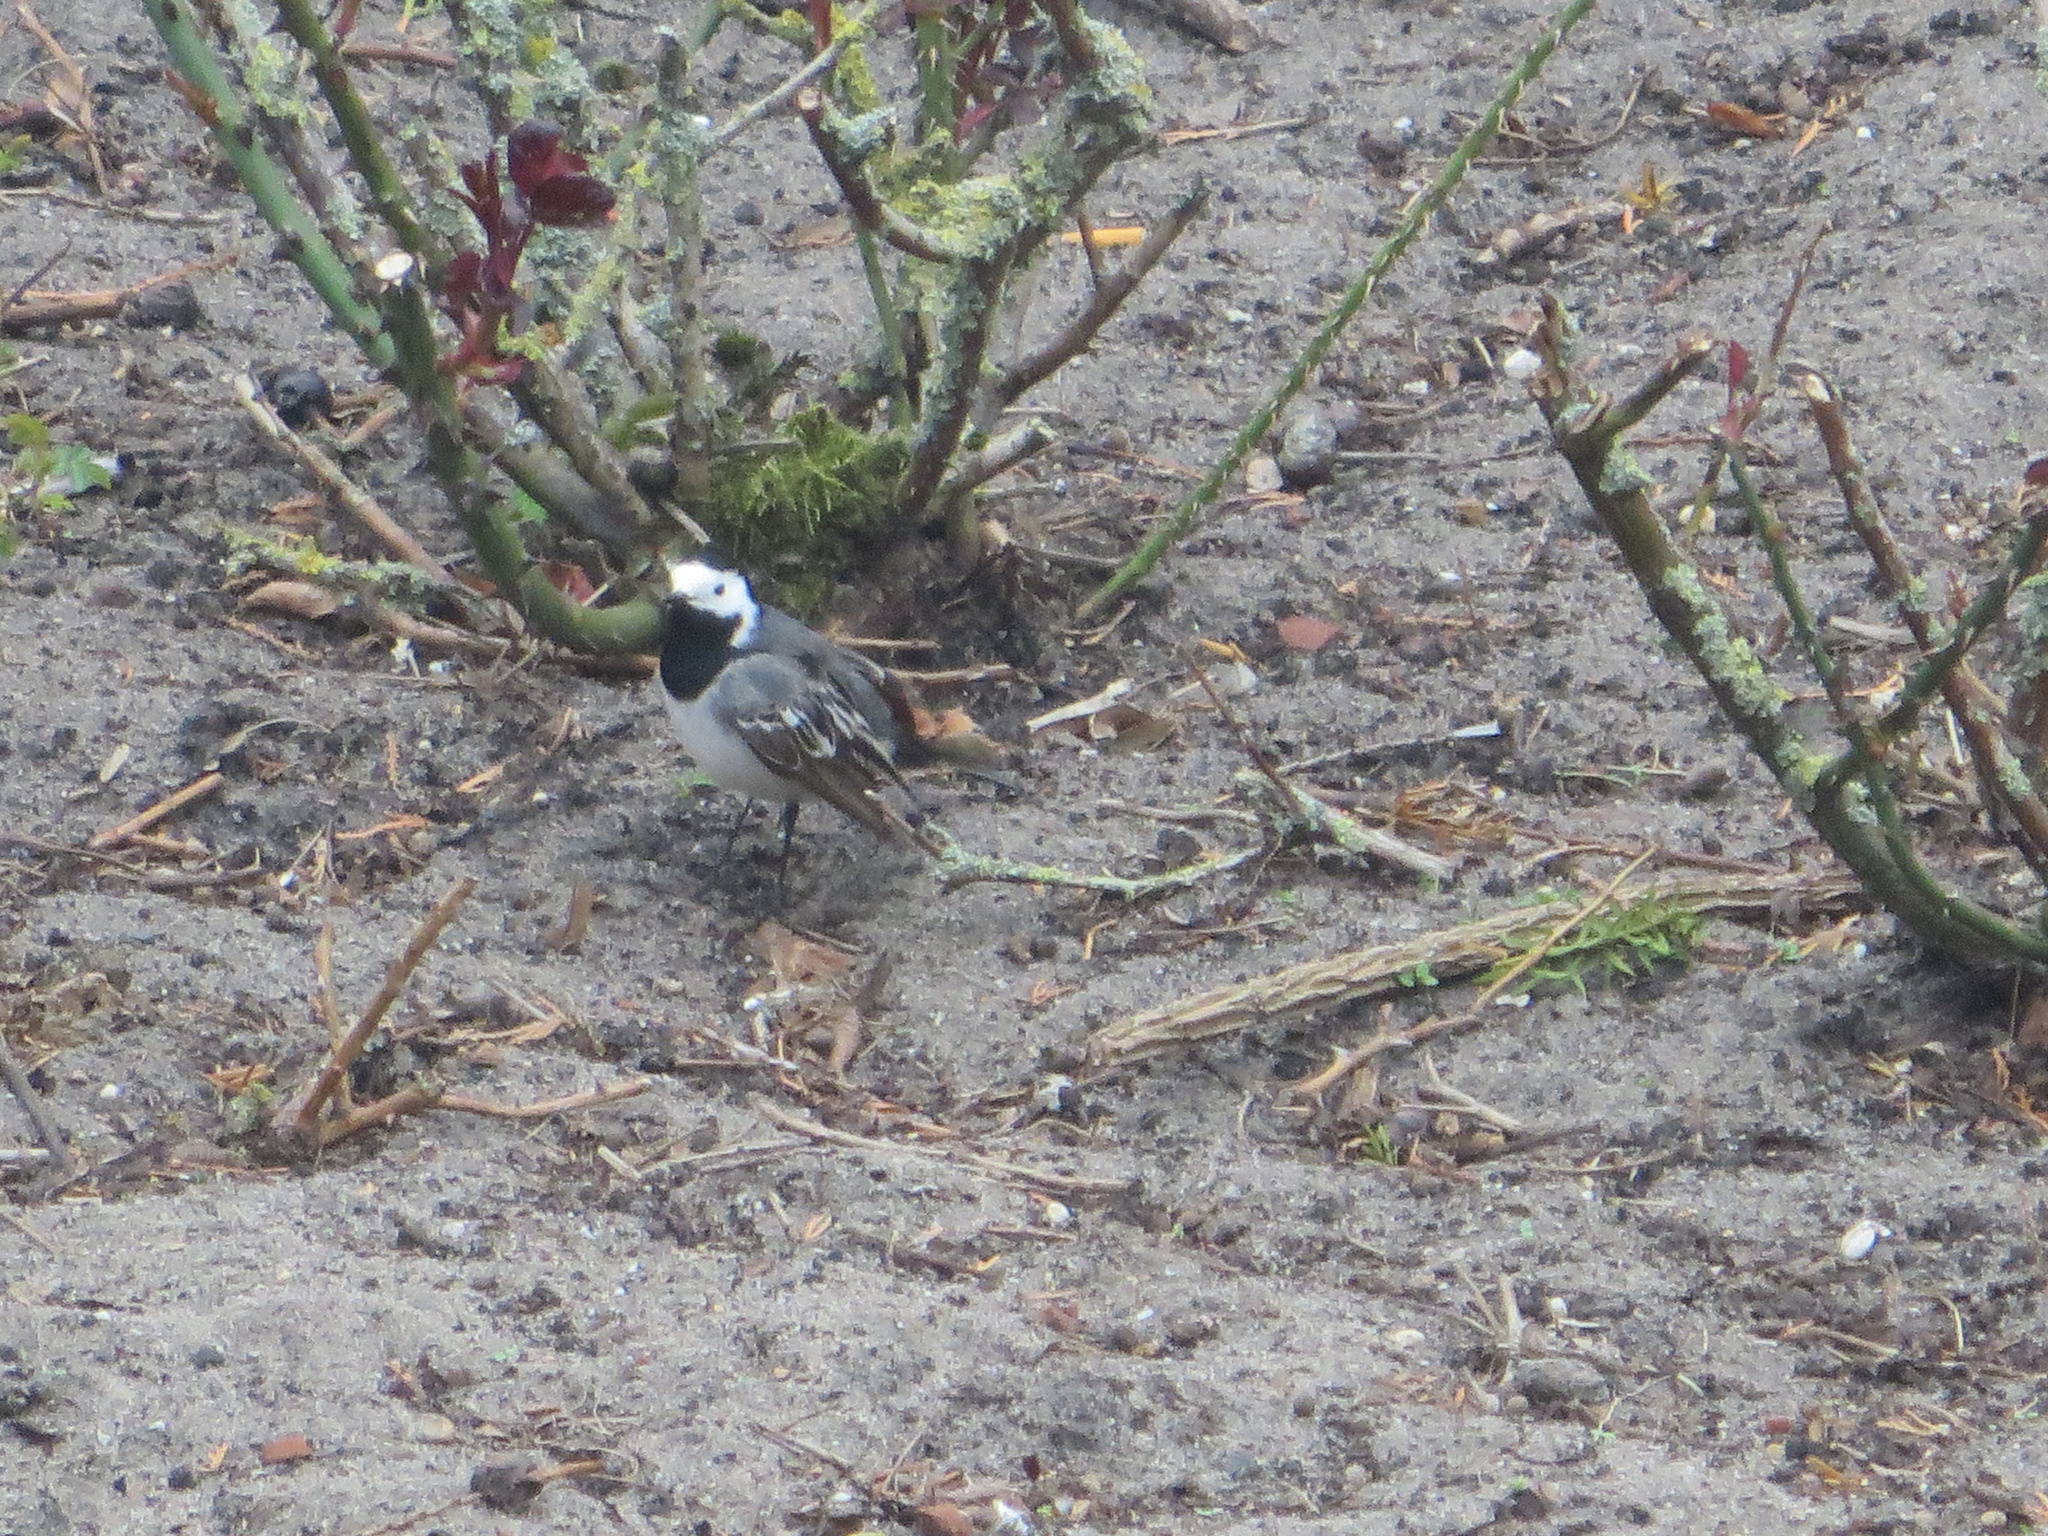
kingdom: Animalia
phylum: Chordata
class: Aves
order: Passeriformes
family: Motacillidae
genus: Motacilla
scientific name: Motacilla alba
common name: White wagtail
